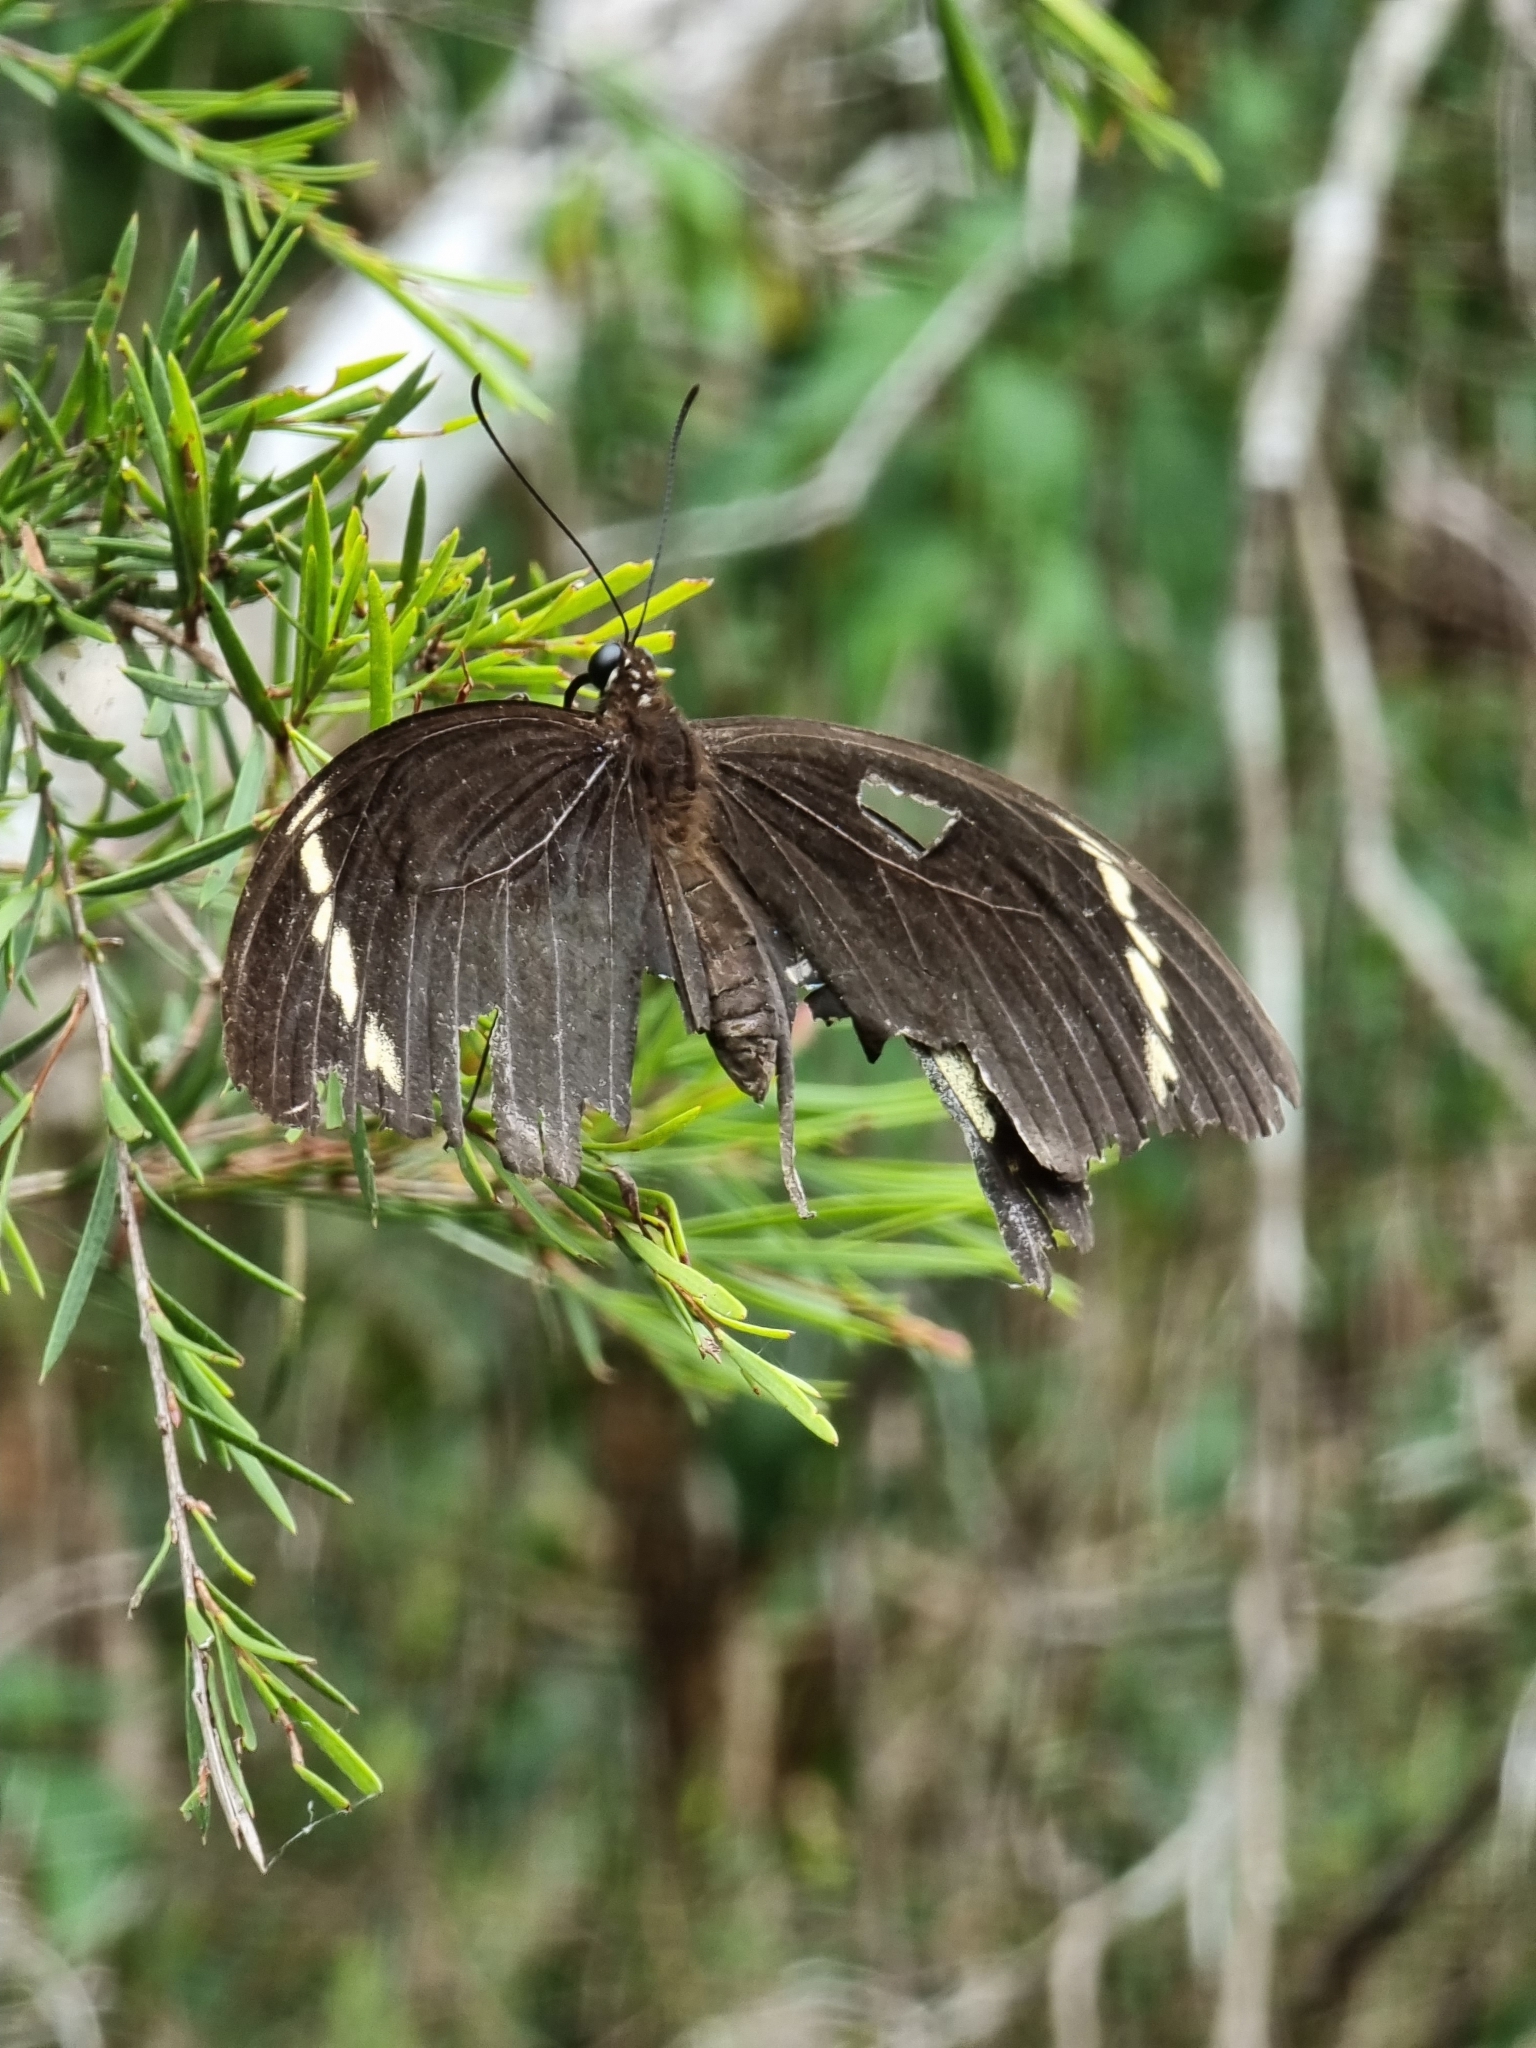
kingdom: Animalia
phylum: Arthropoda
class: Insecta
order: Lepidoptera
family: Papilionidae
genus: Papilio
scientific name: Papilio aegeus
